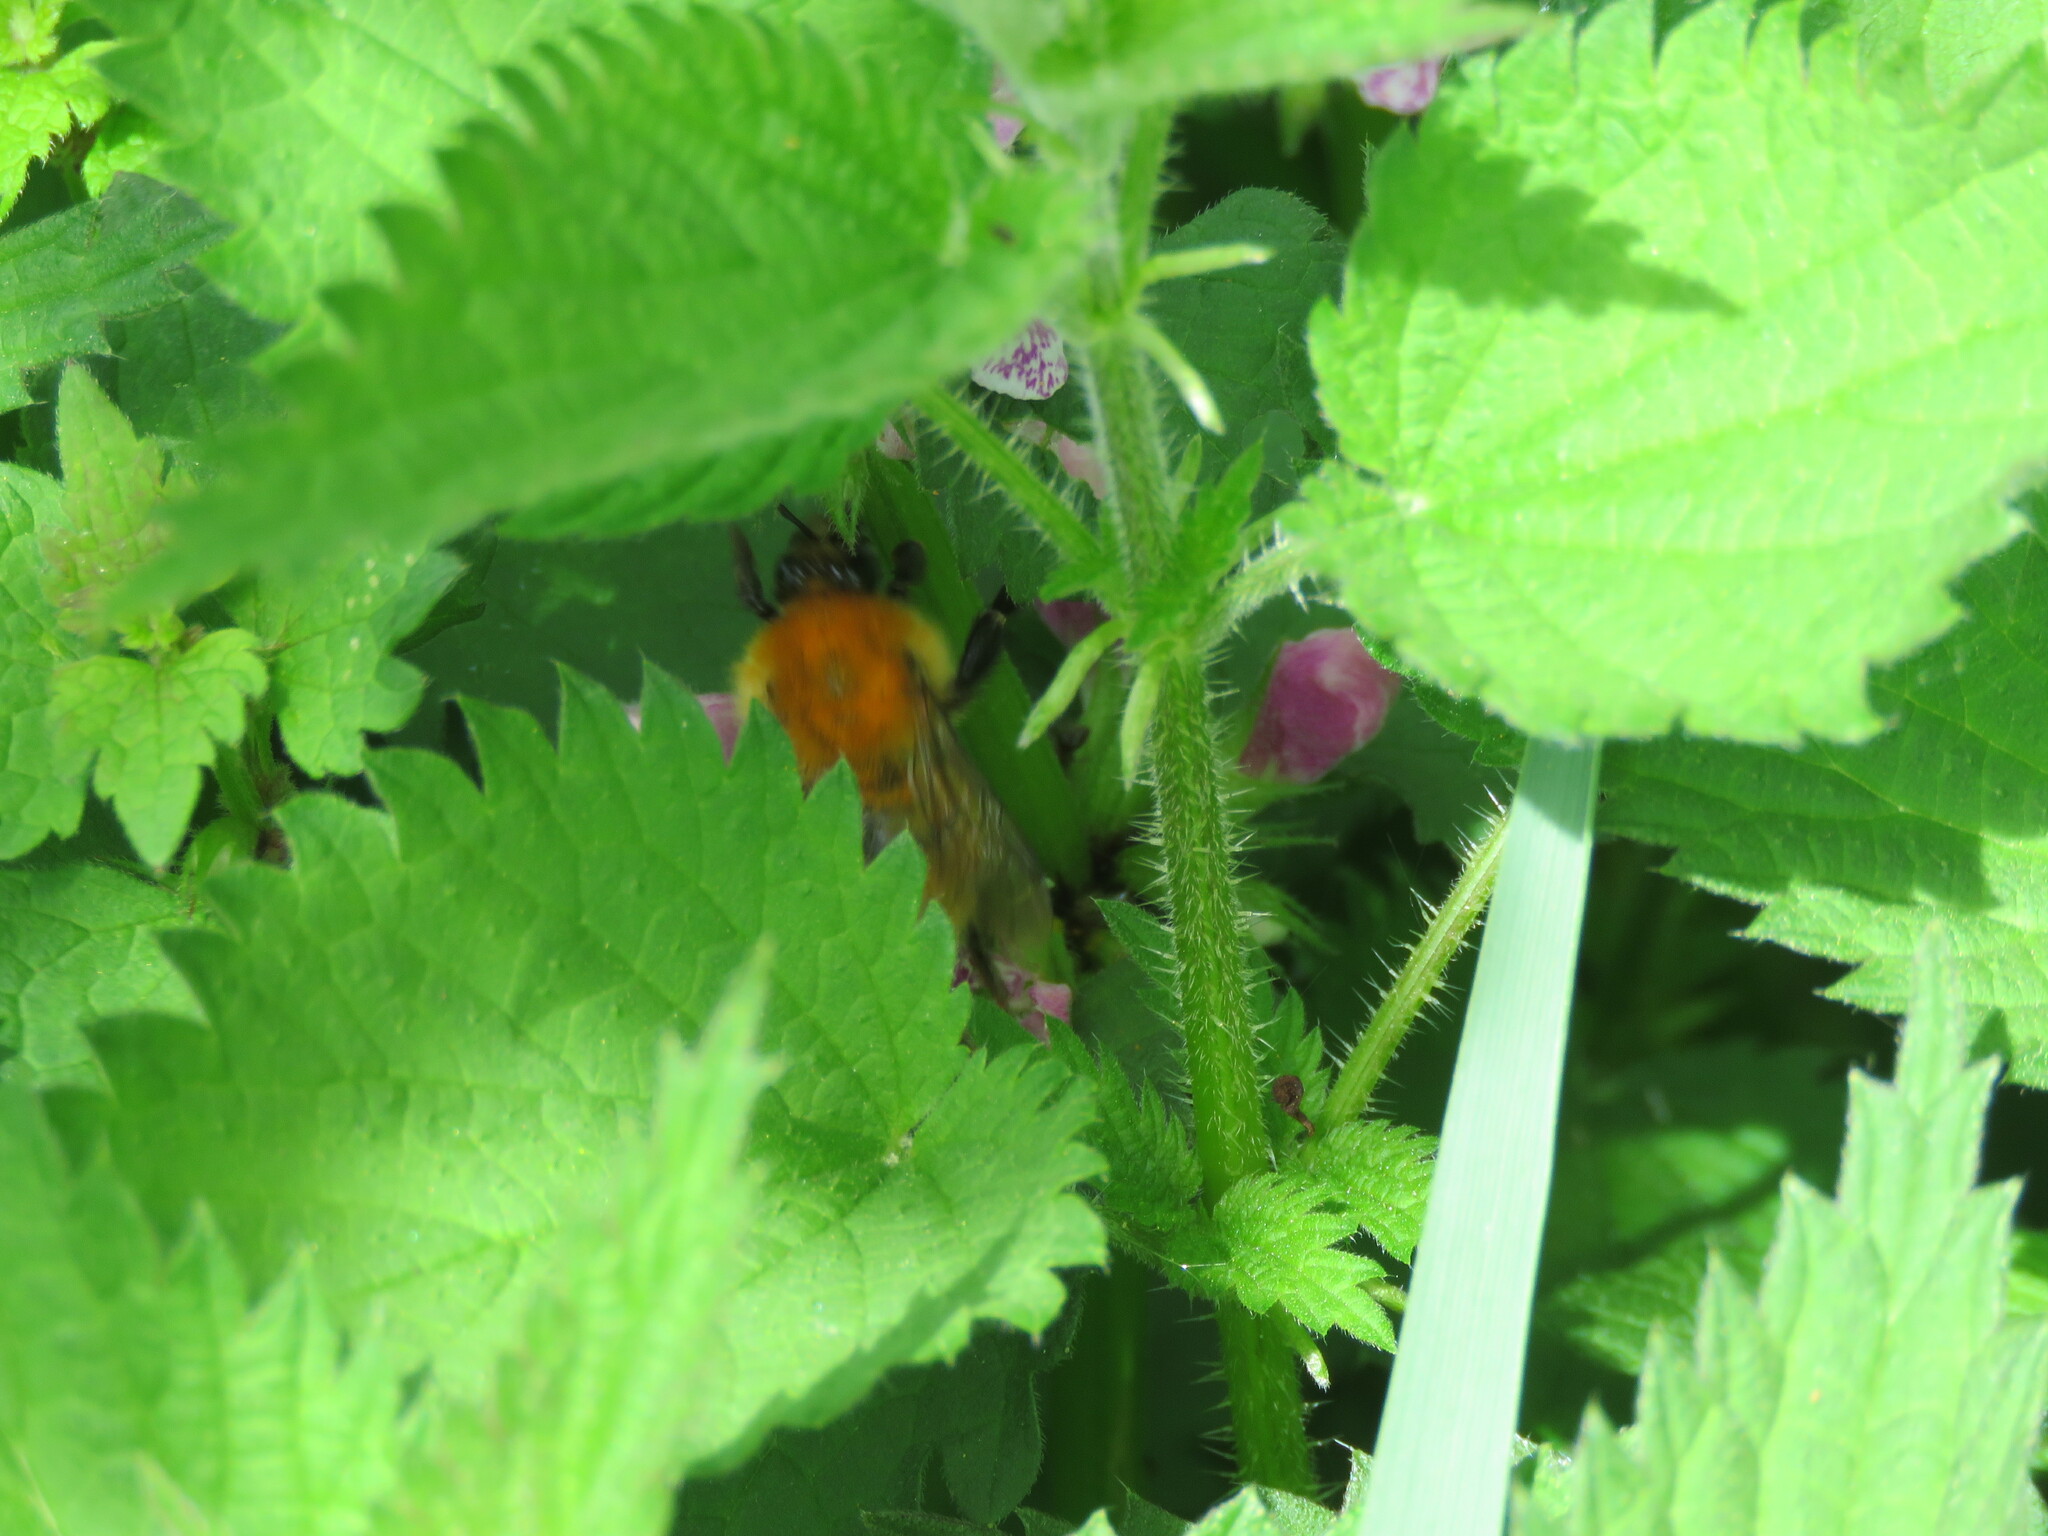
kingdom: Animalia
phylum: Arthropoda
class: Insecta
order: Hymenoptera
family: Apidae
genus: Bombus
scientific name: Bombus pascuorum
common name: Common carder bee
